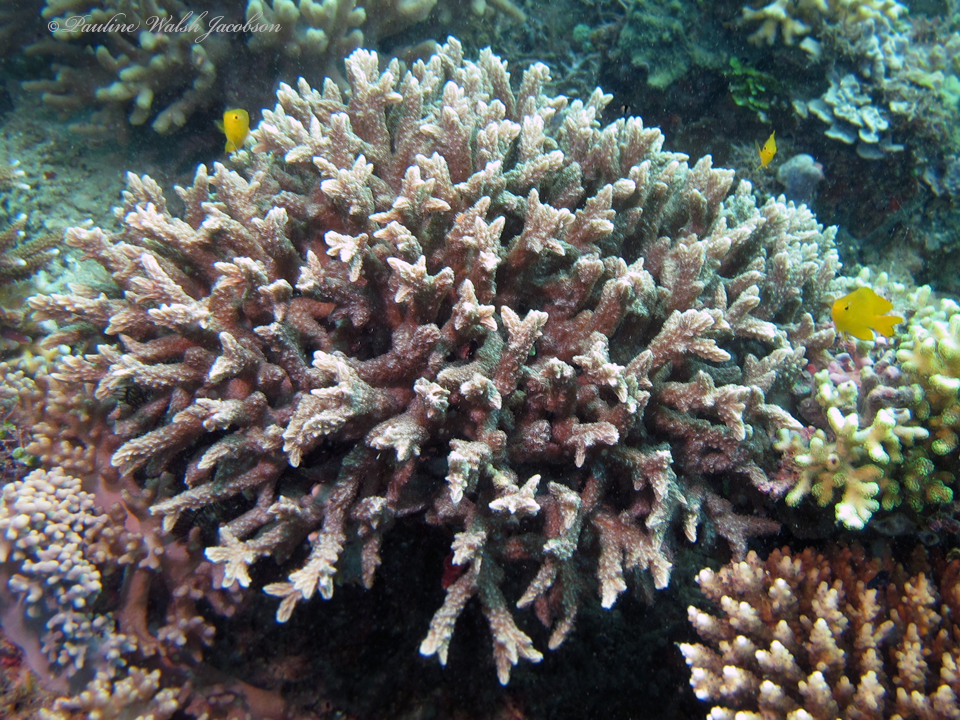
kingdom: Animalia
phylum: Cnidaria
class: Anthozoa
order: Scleractinia
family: Merulinidae
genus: Hydnophora
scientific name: Hydnophora rigida
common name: Spine coral
